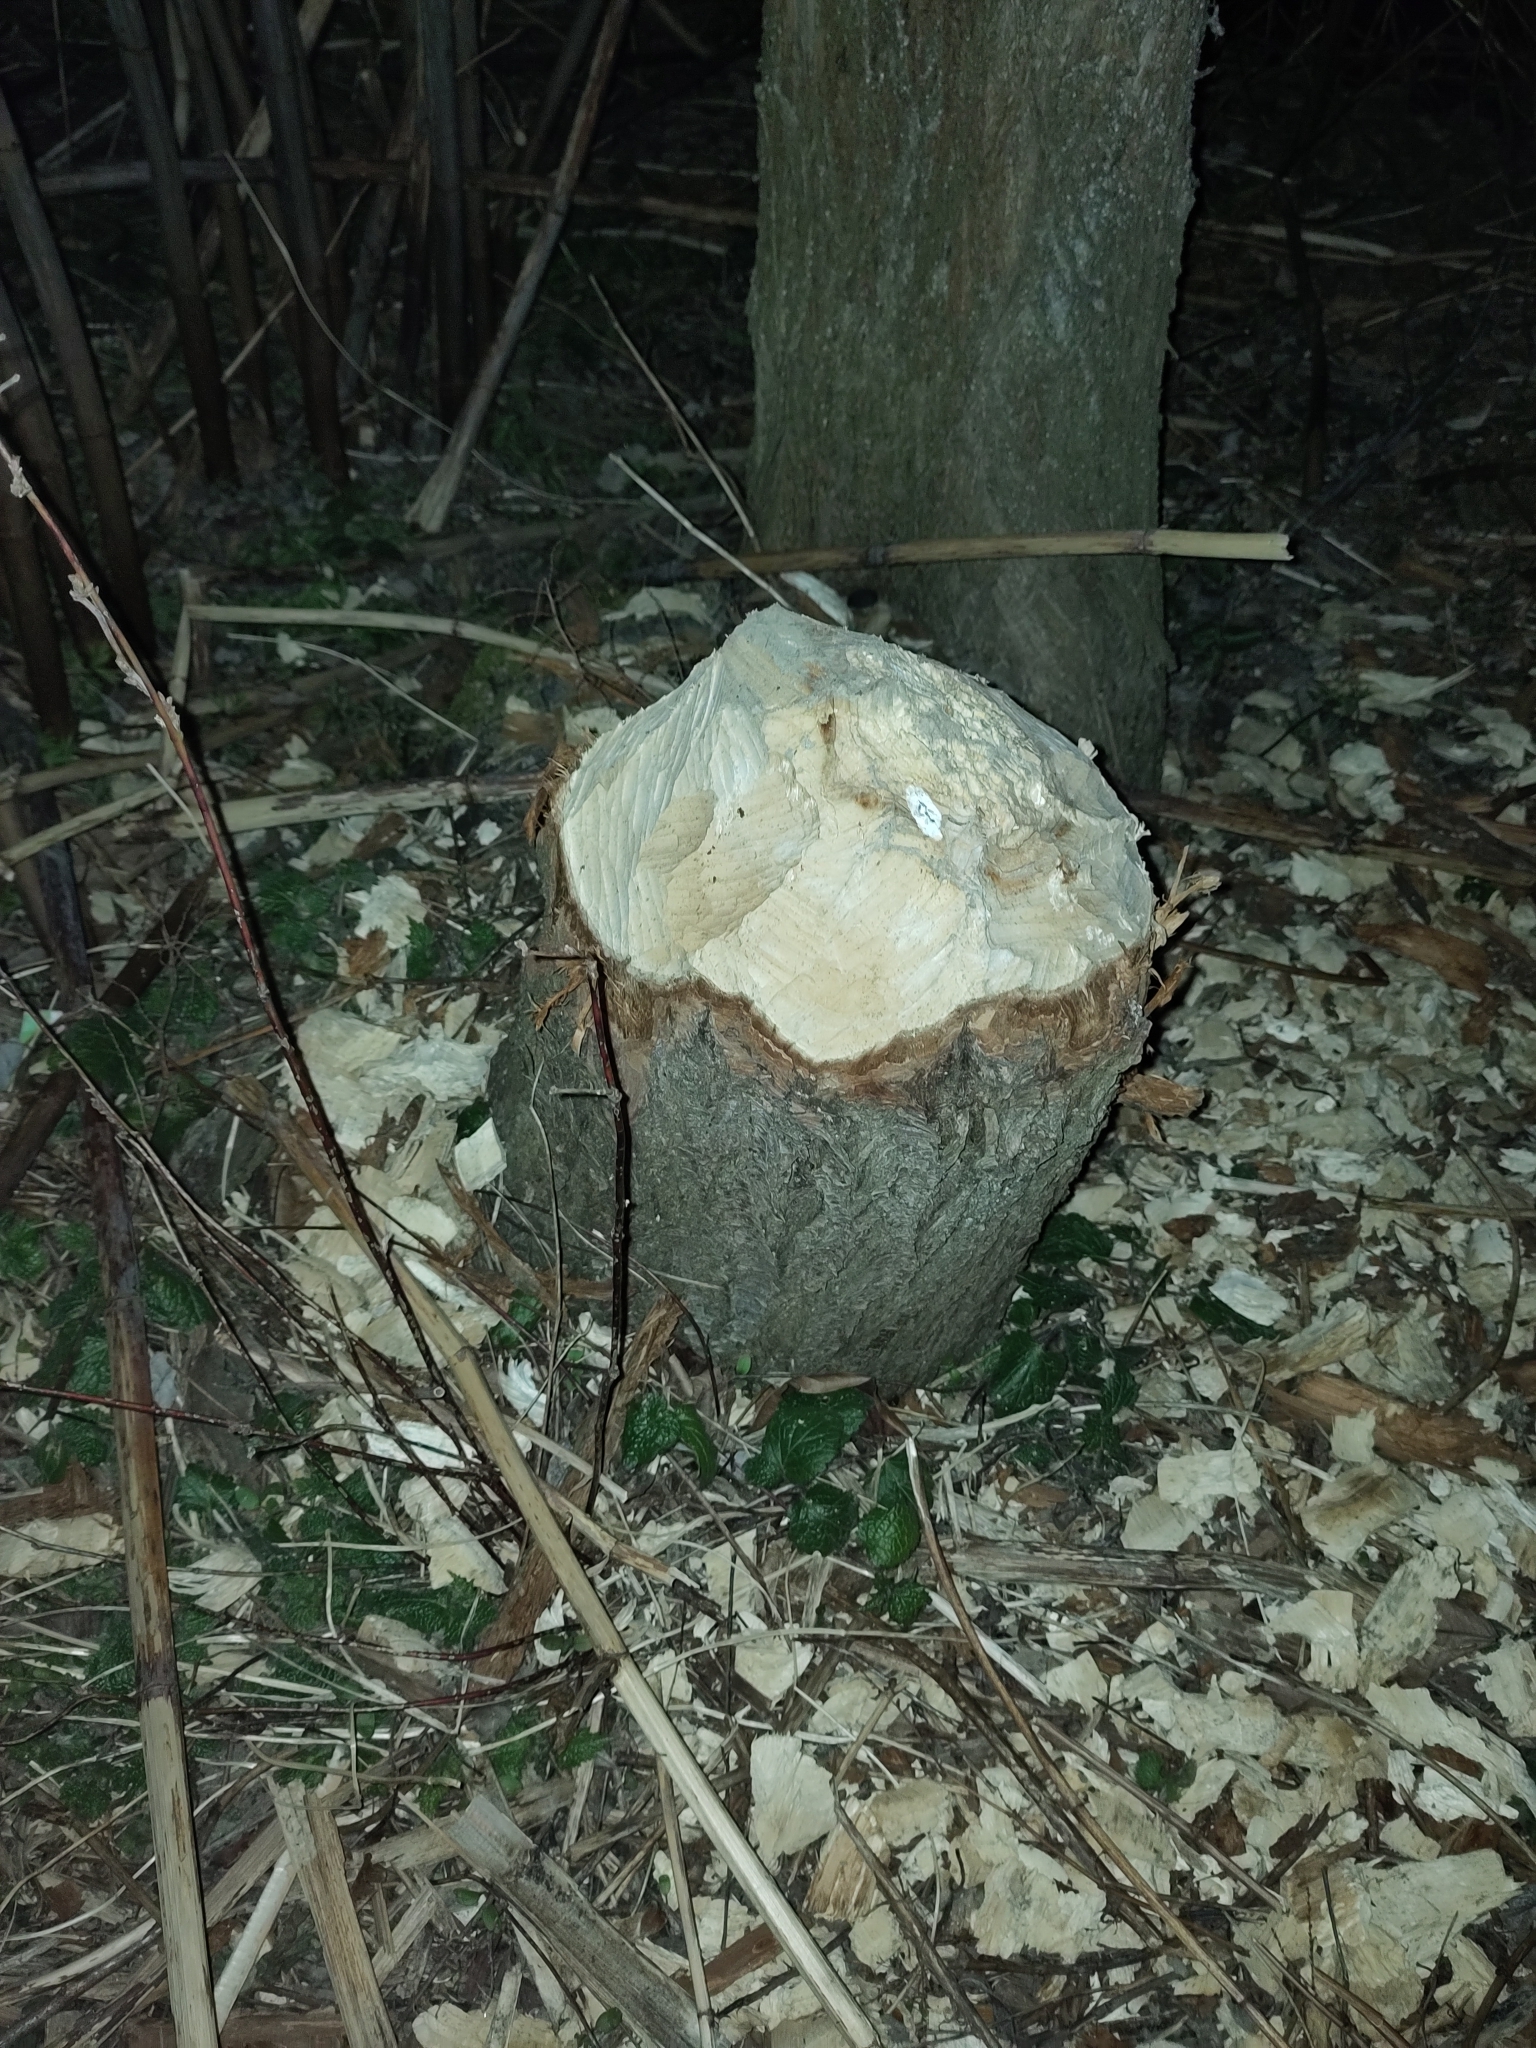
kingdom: Animalia
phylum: Chordata
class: Mammalia
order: Rodentia
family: Castoridae
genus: Castor
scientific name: Castor fiber
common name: Eurasian beaver
